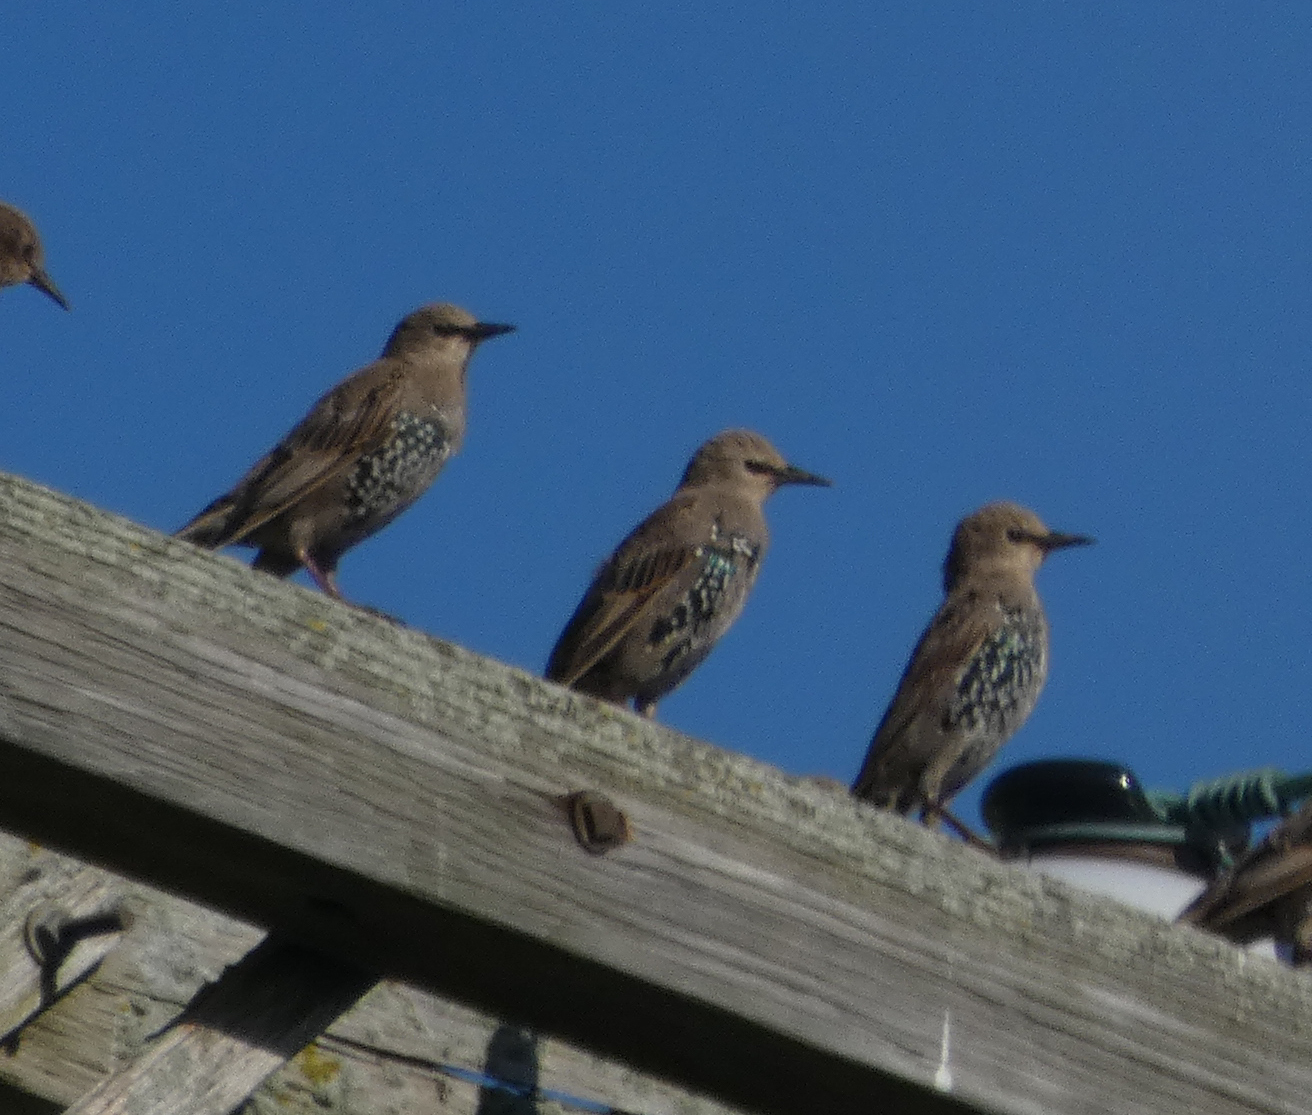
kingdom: Animalia
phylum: Chordata
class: Aves
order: Passeriformes
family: Sturnidae
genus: Sturnus
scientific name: Sturnus vulgaris
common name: Common starling
